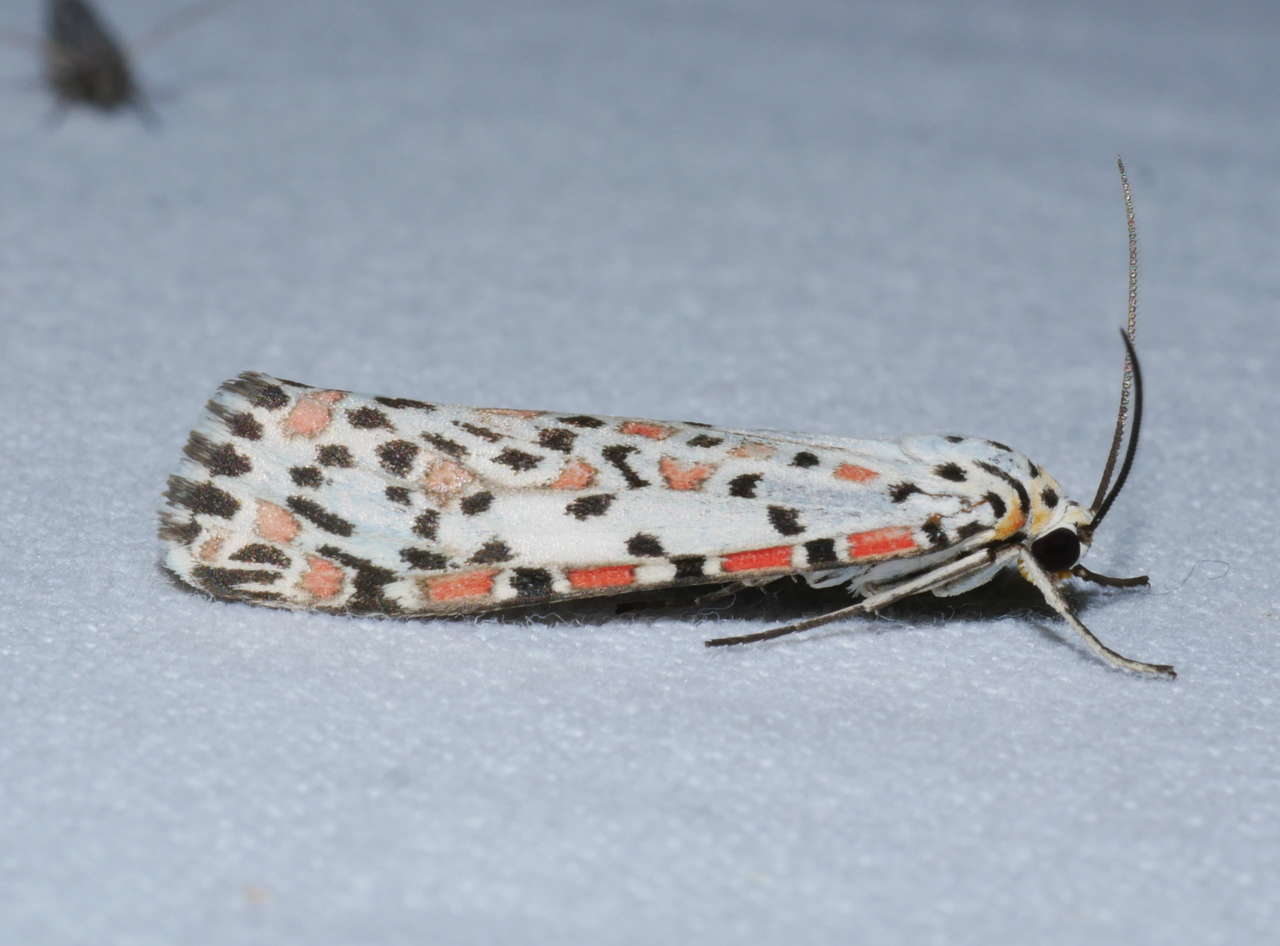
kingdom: Animalia
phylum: Arthropoda
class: Insecta
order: Lepidoptera
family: Erebidae
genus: Utetheisa
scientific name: Utetheisa pulchelloides
